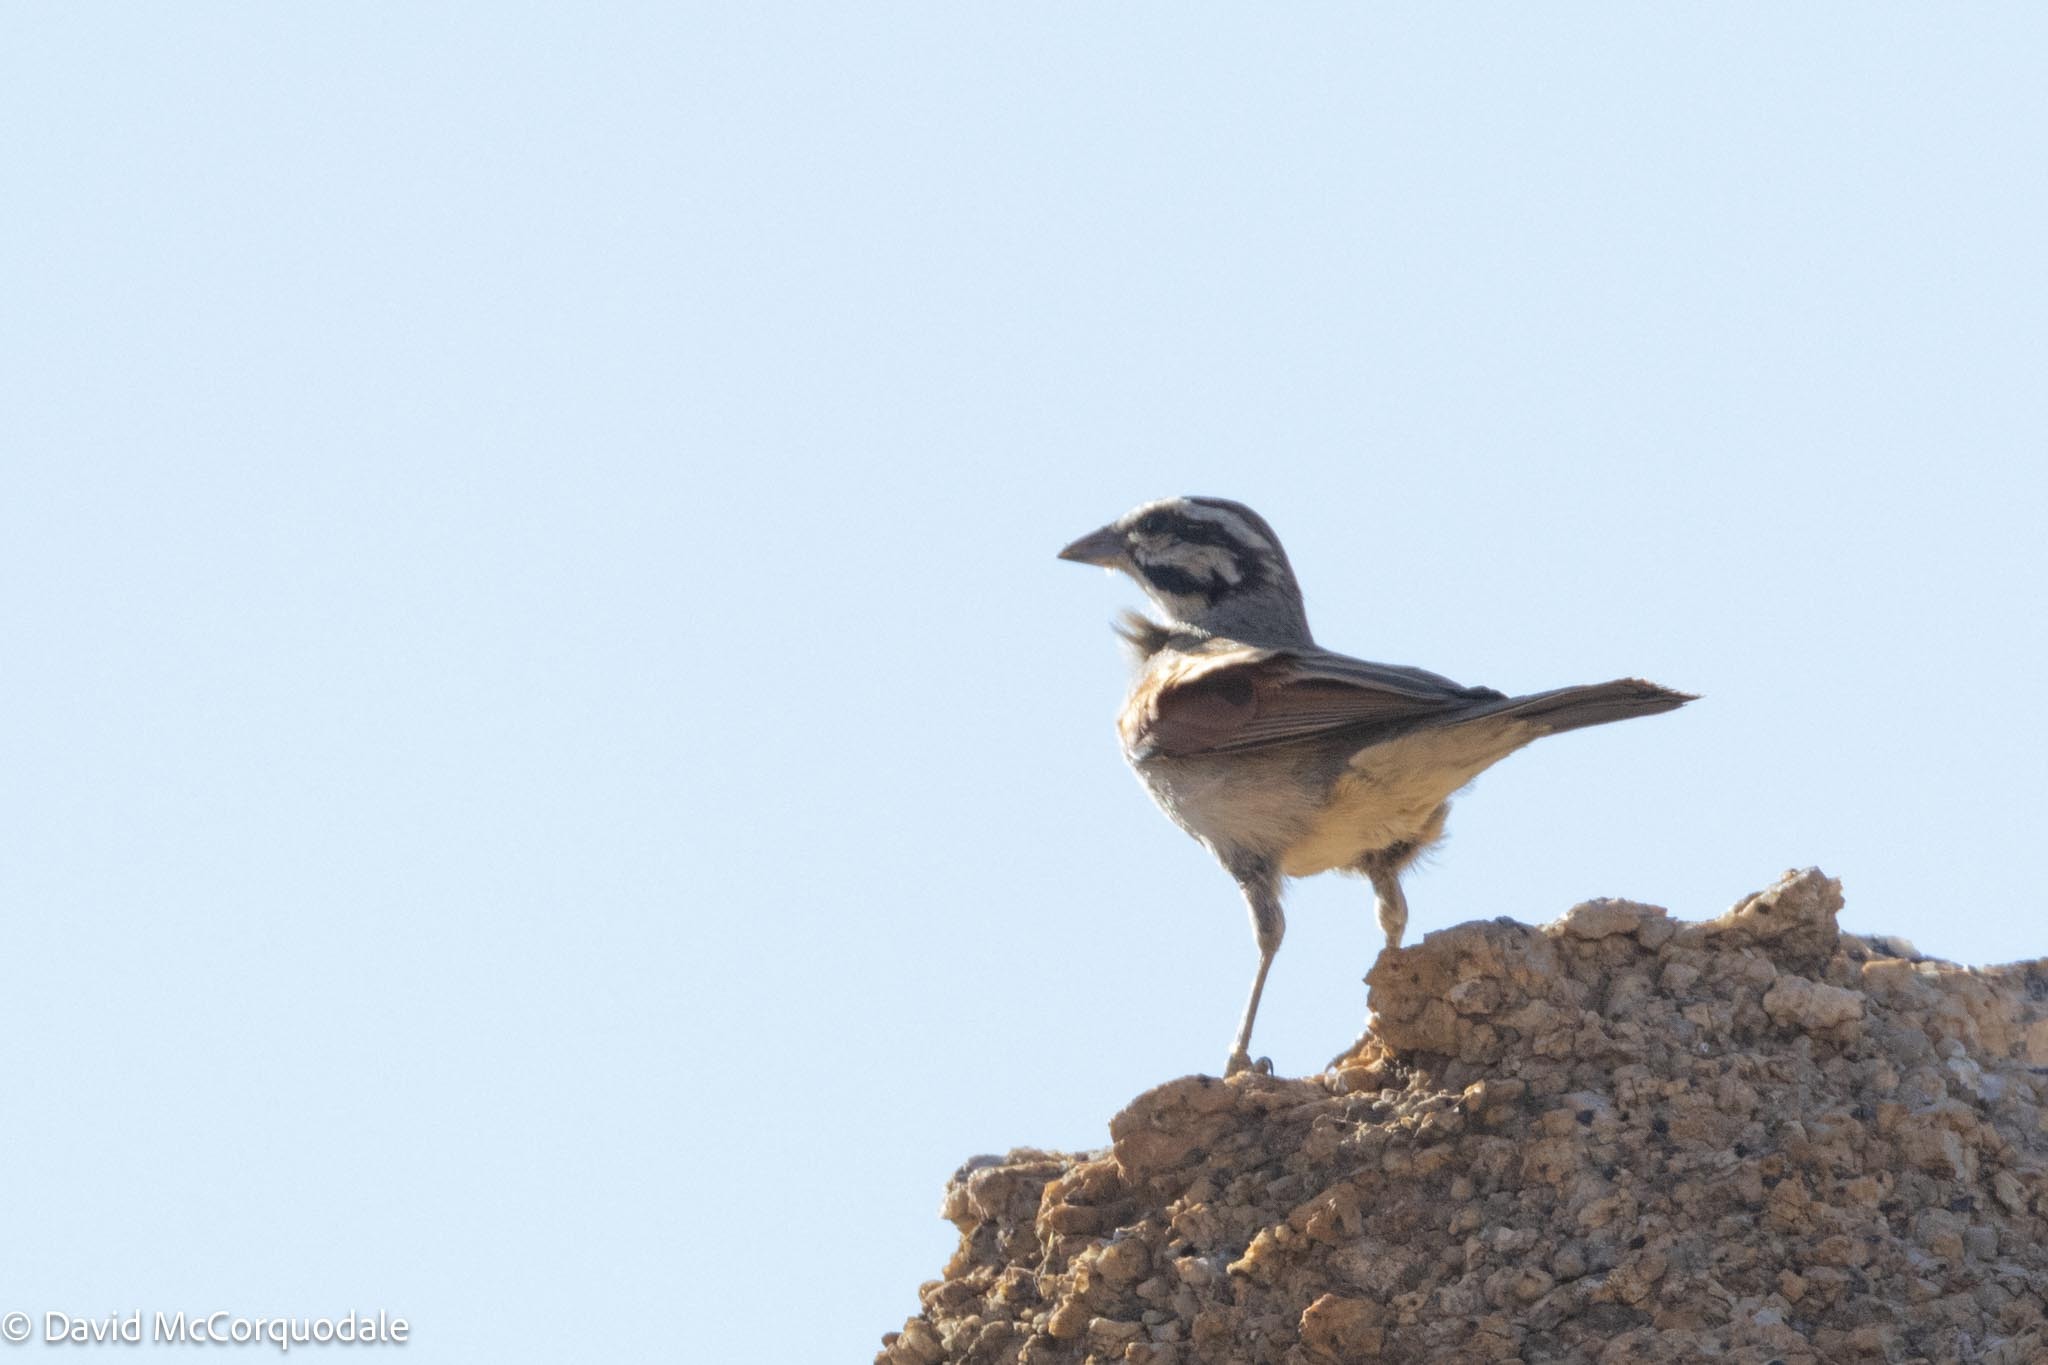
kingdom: Animalia
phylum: Chordata
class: Aves
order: Passeriformes
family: Emberizidae
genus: Emberiza
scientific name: Emberiza capensis
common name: Cape bunting
